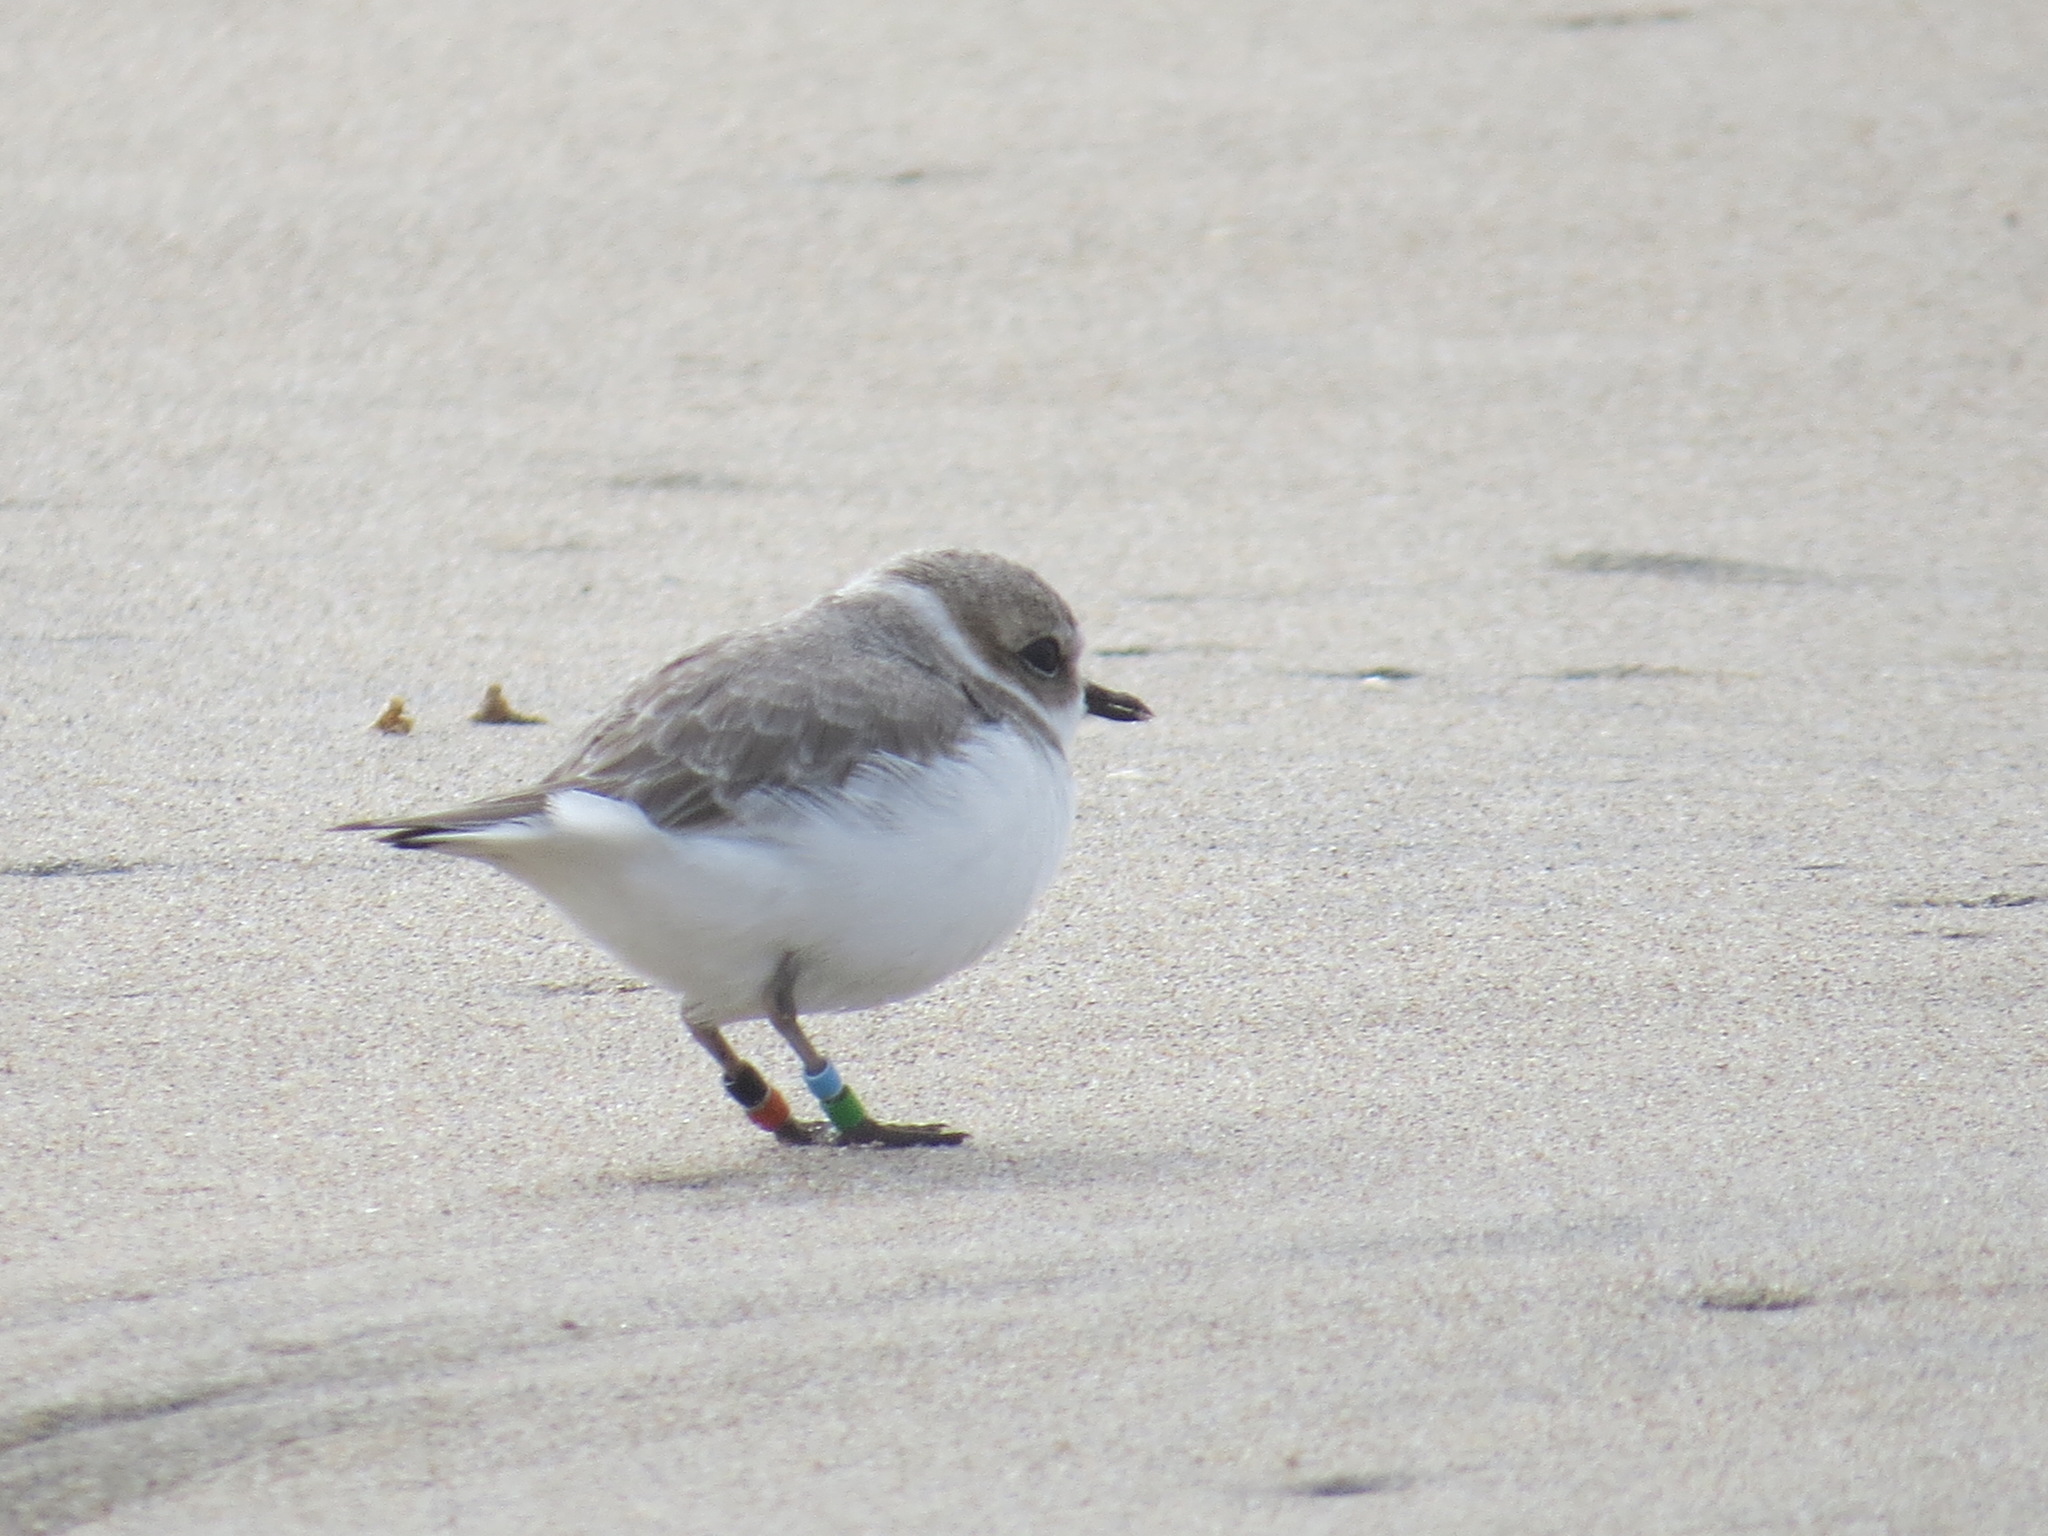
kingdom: Animalia
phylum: Chordata
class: Aves
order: Charadriiformes
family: Charadriidae
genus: Anarhynchus
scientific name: Anarhynchus
